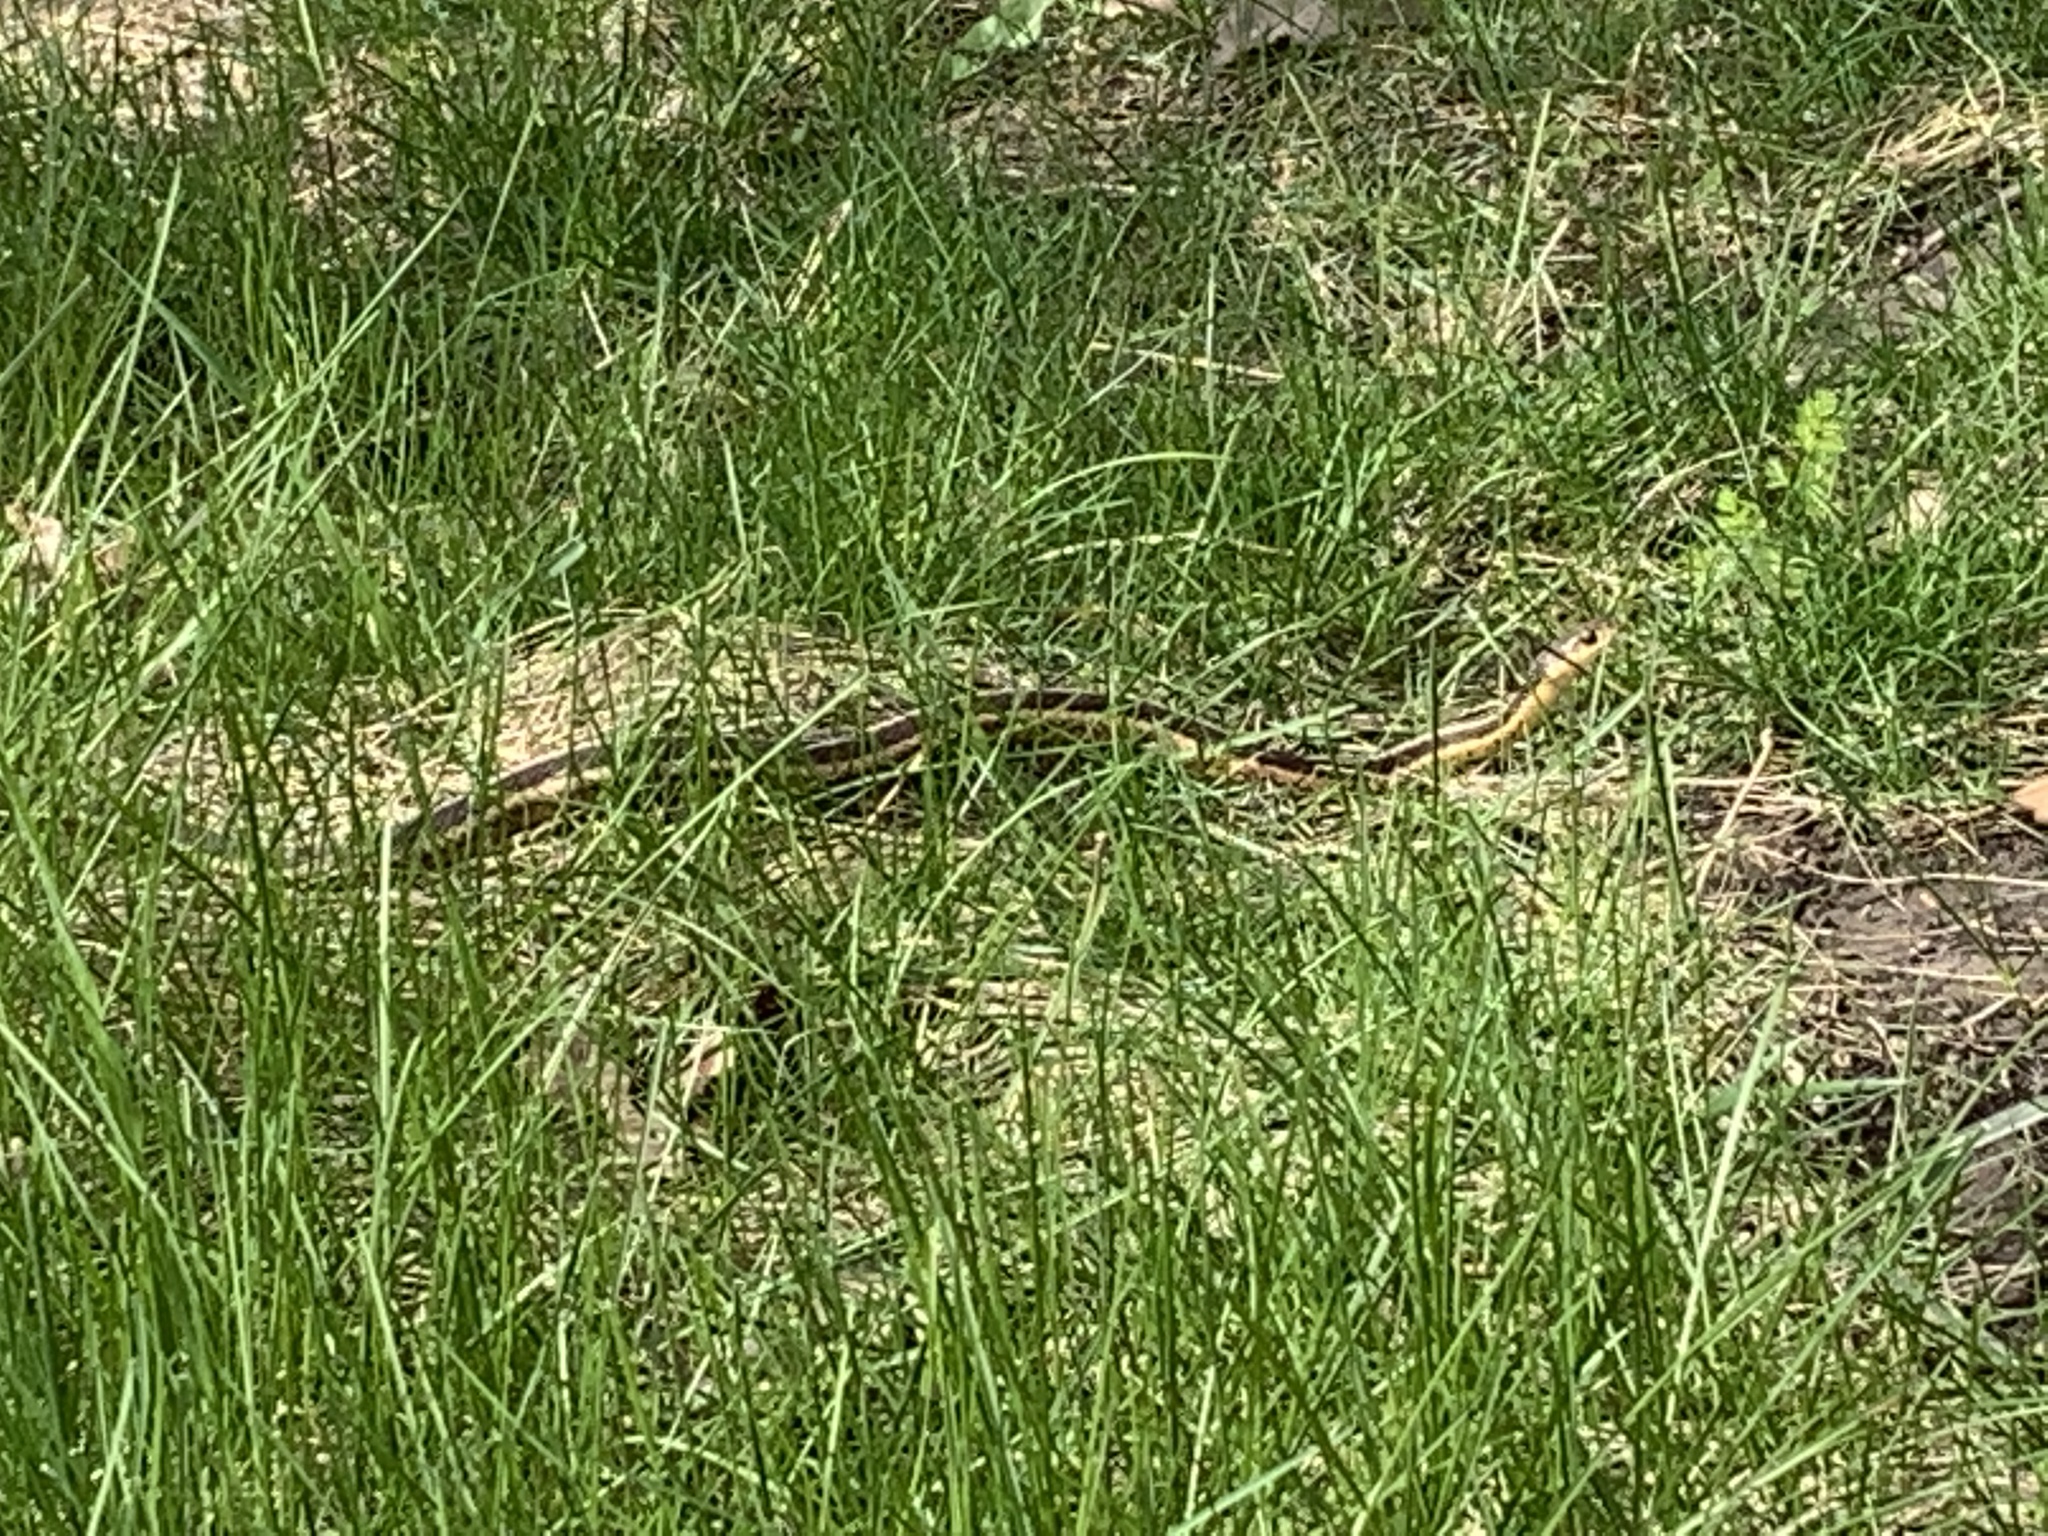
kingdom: Animalia
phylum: Chordata
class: Squamata
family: Colubridae
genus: Thamnophis
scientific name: Thamnophis sirtalis
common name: Common garter snake
